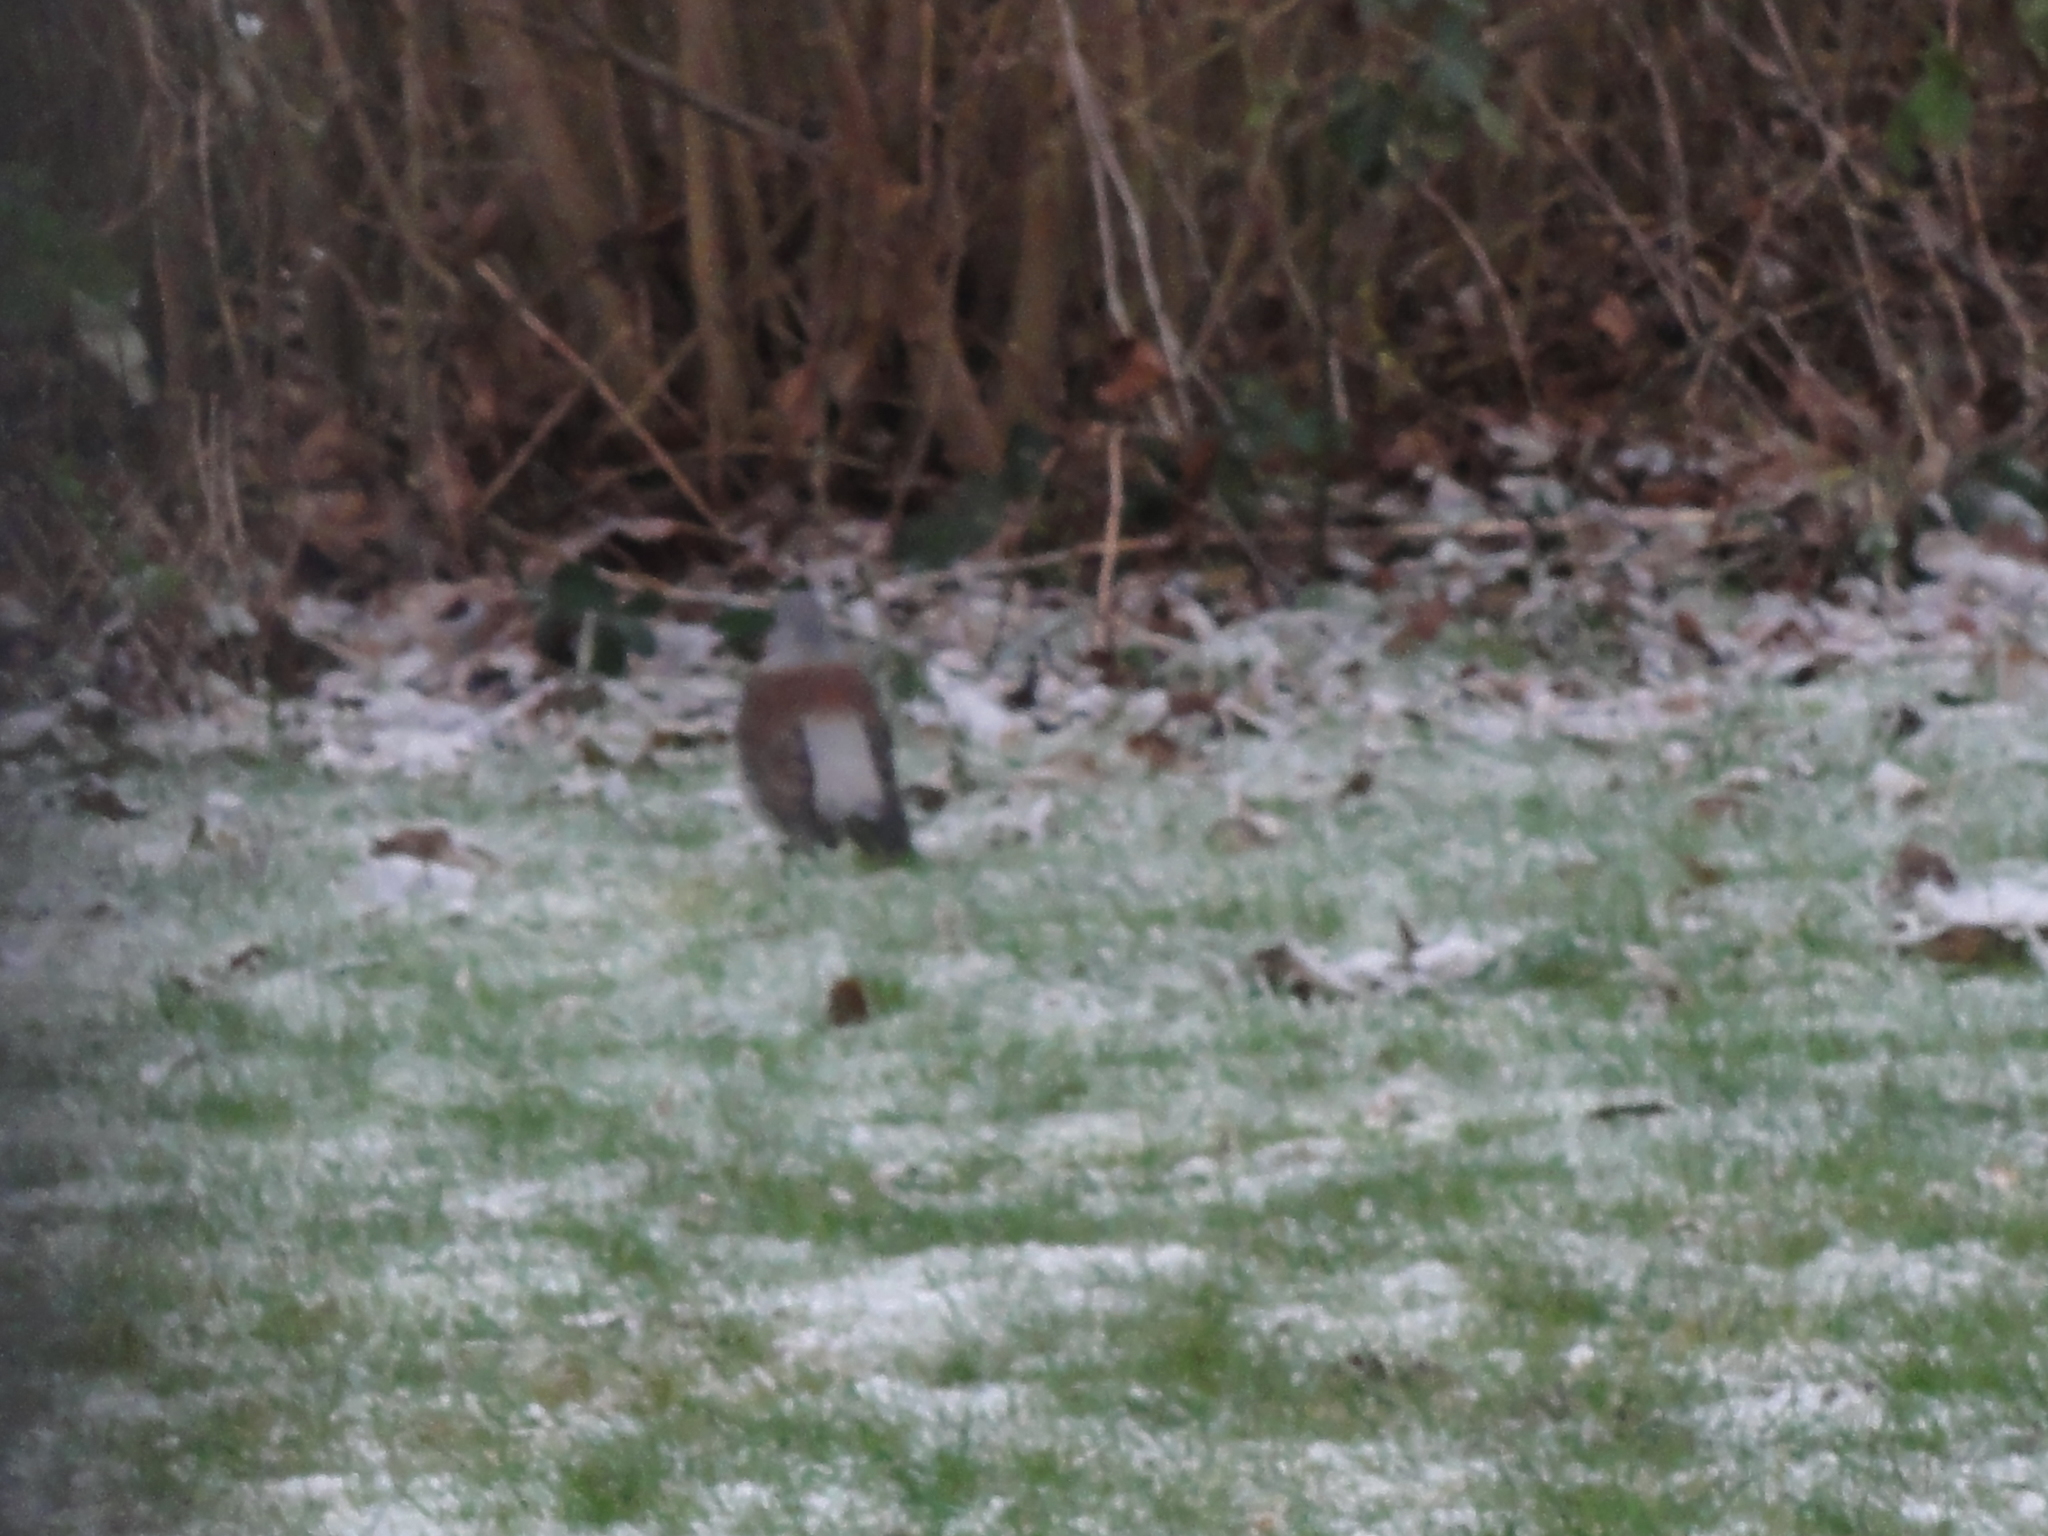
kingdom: Animalia
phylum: Chordata
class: Aves
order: Passeriformes
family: Turdidae
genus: Turdus
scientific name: Turdus pilaris
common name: Fieldfare
